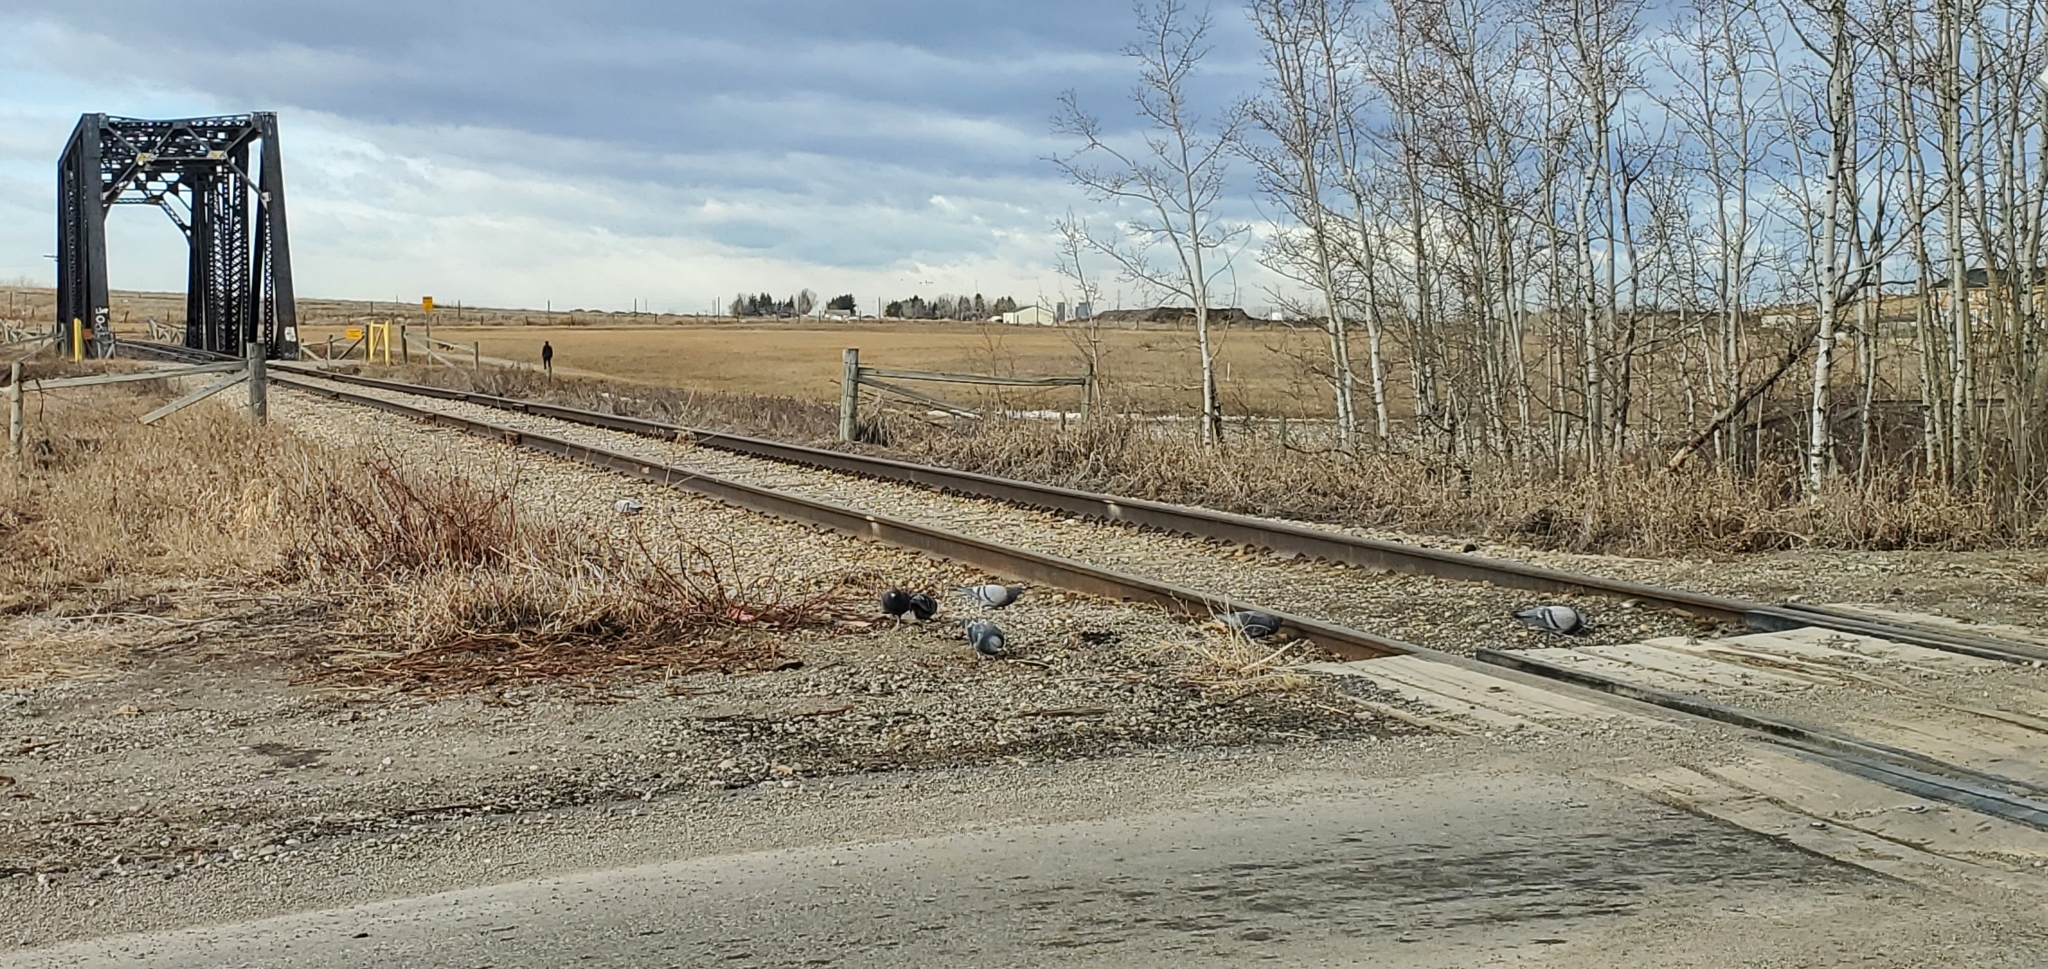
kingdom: Animalia
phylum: Chordata
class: Aves
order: Columbiformes
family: Columbidae
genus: Columba
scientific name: Columba livia
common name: Rock pigeon
